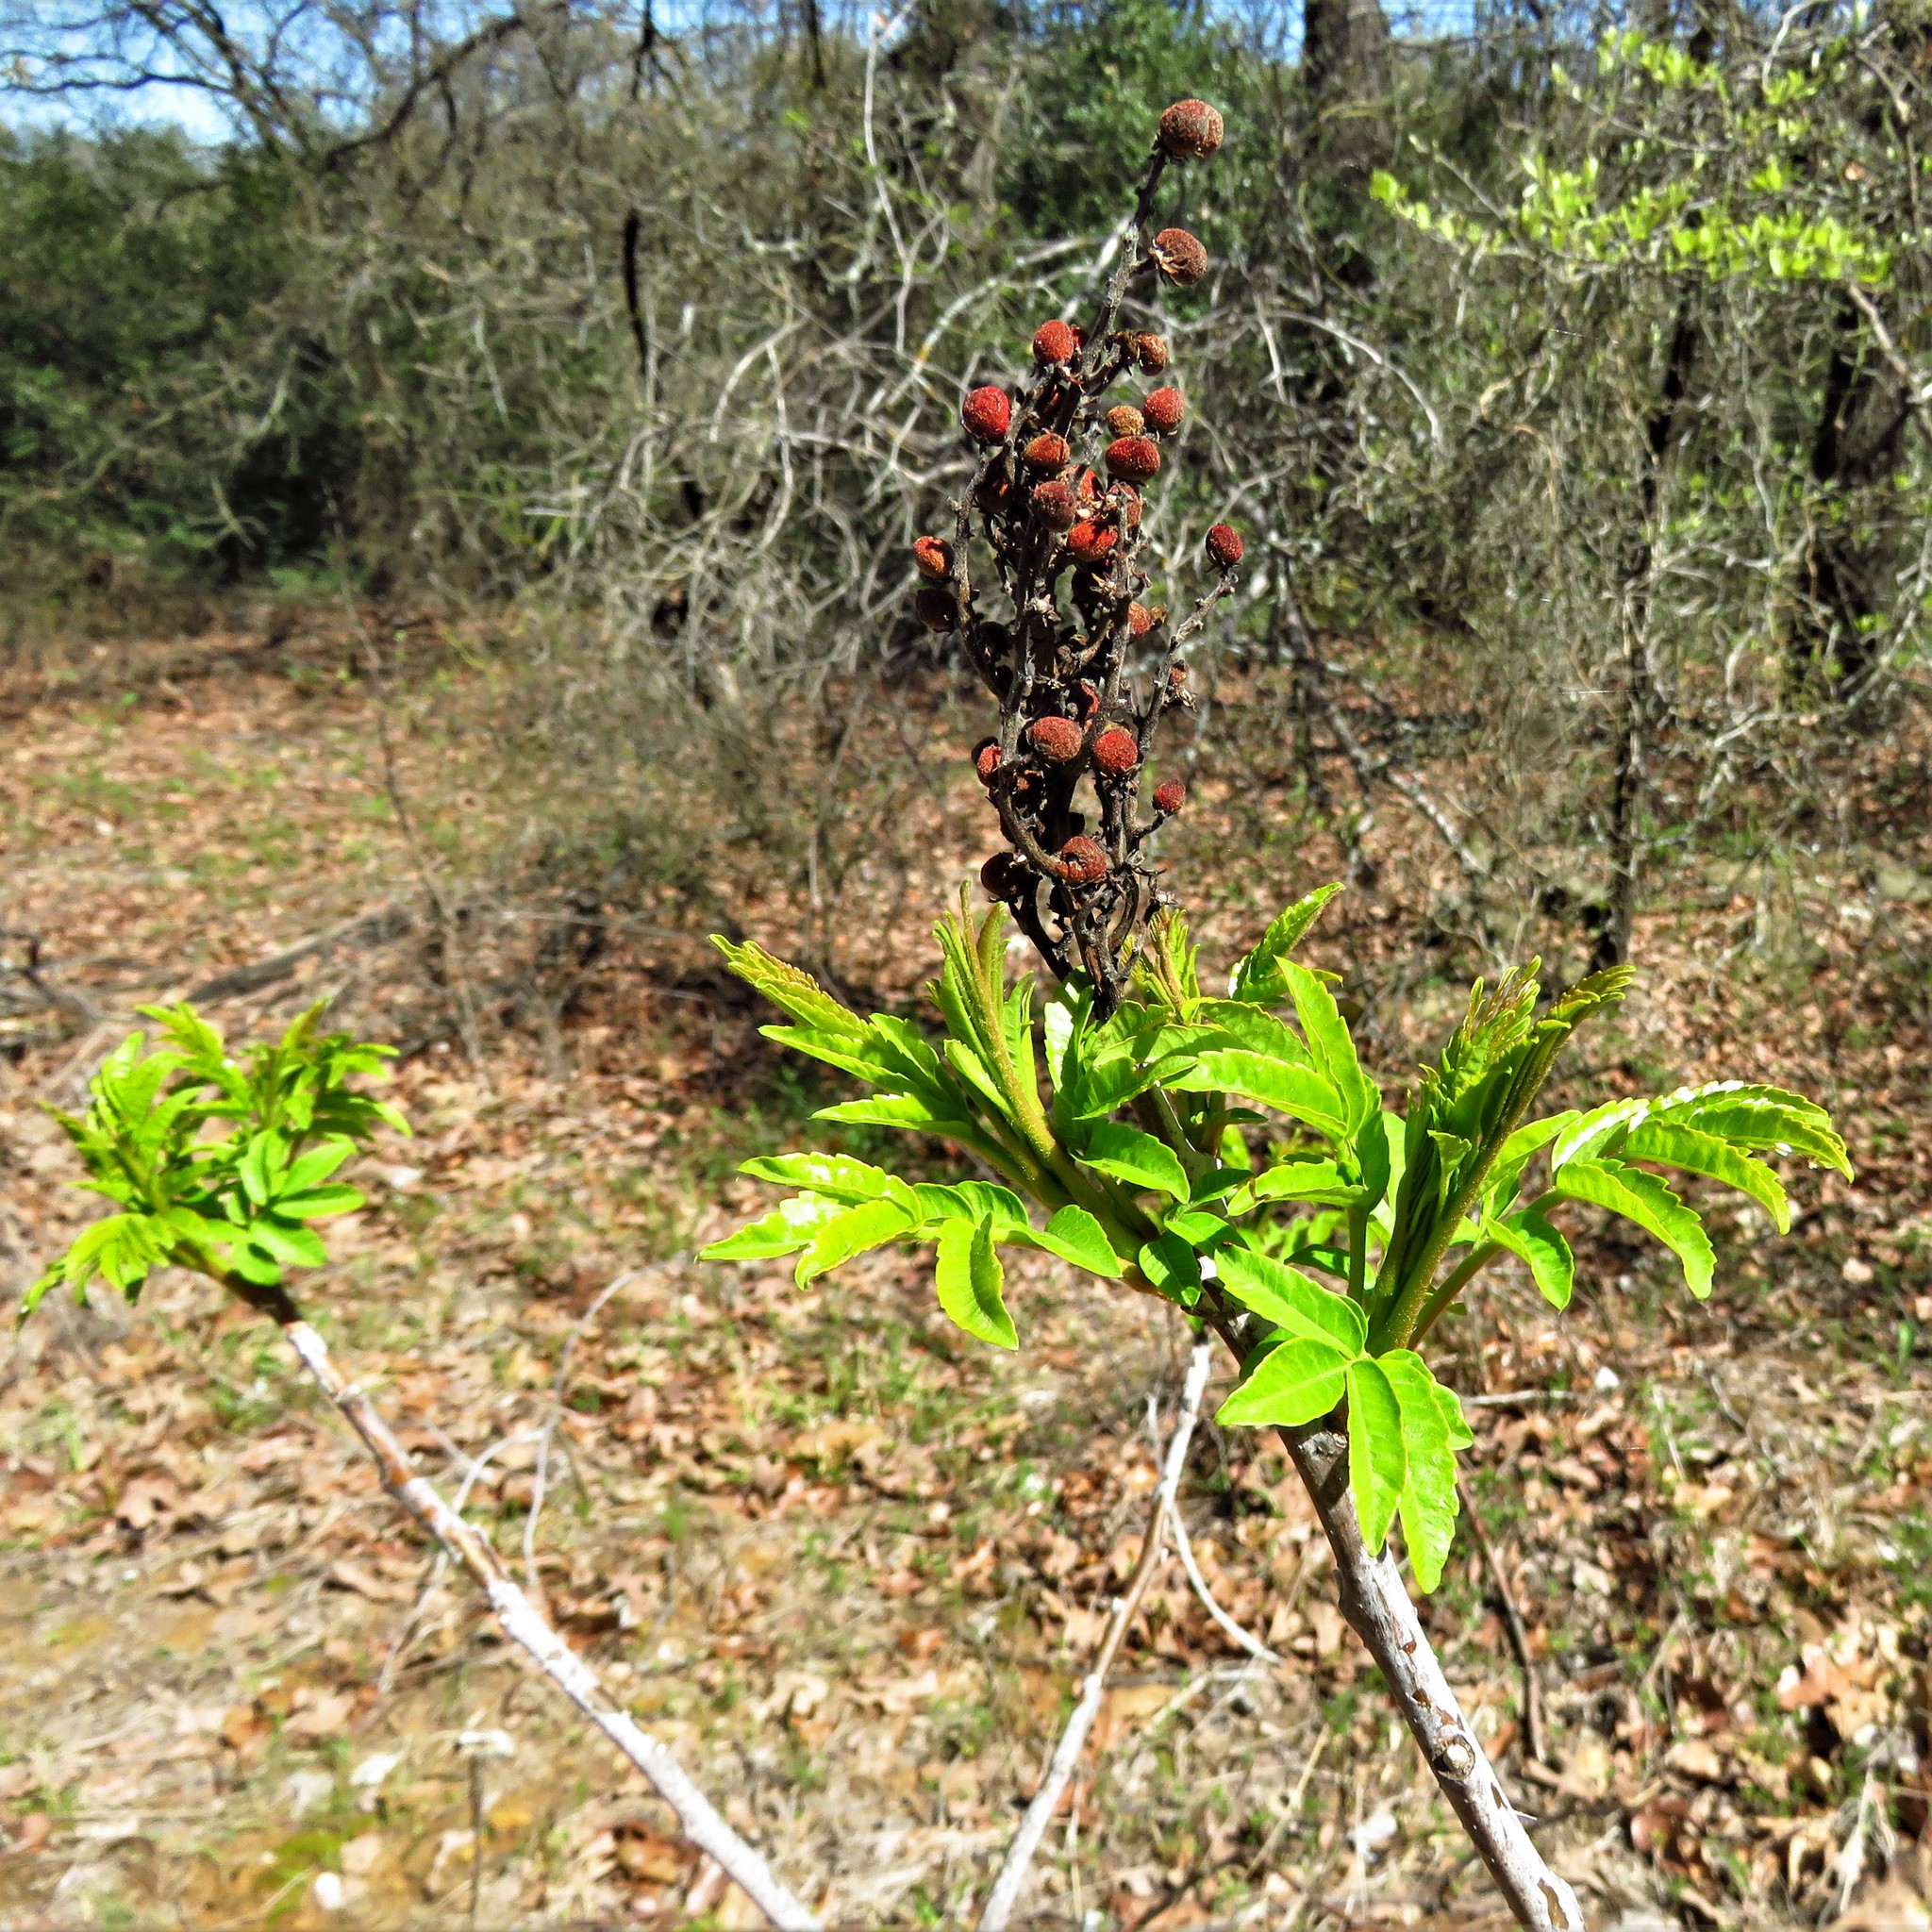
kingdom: Plantae
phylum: Tracheophyta
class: Magnoliopsida
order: Sapindales
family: Anacardiaceae
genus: Rhus
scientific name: Rhus glabra
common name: Scarlet sumac
